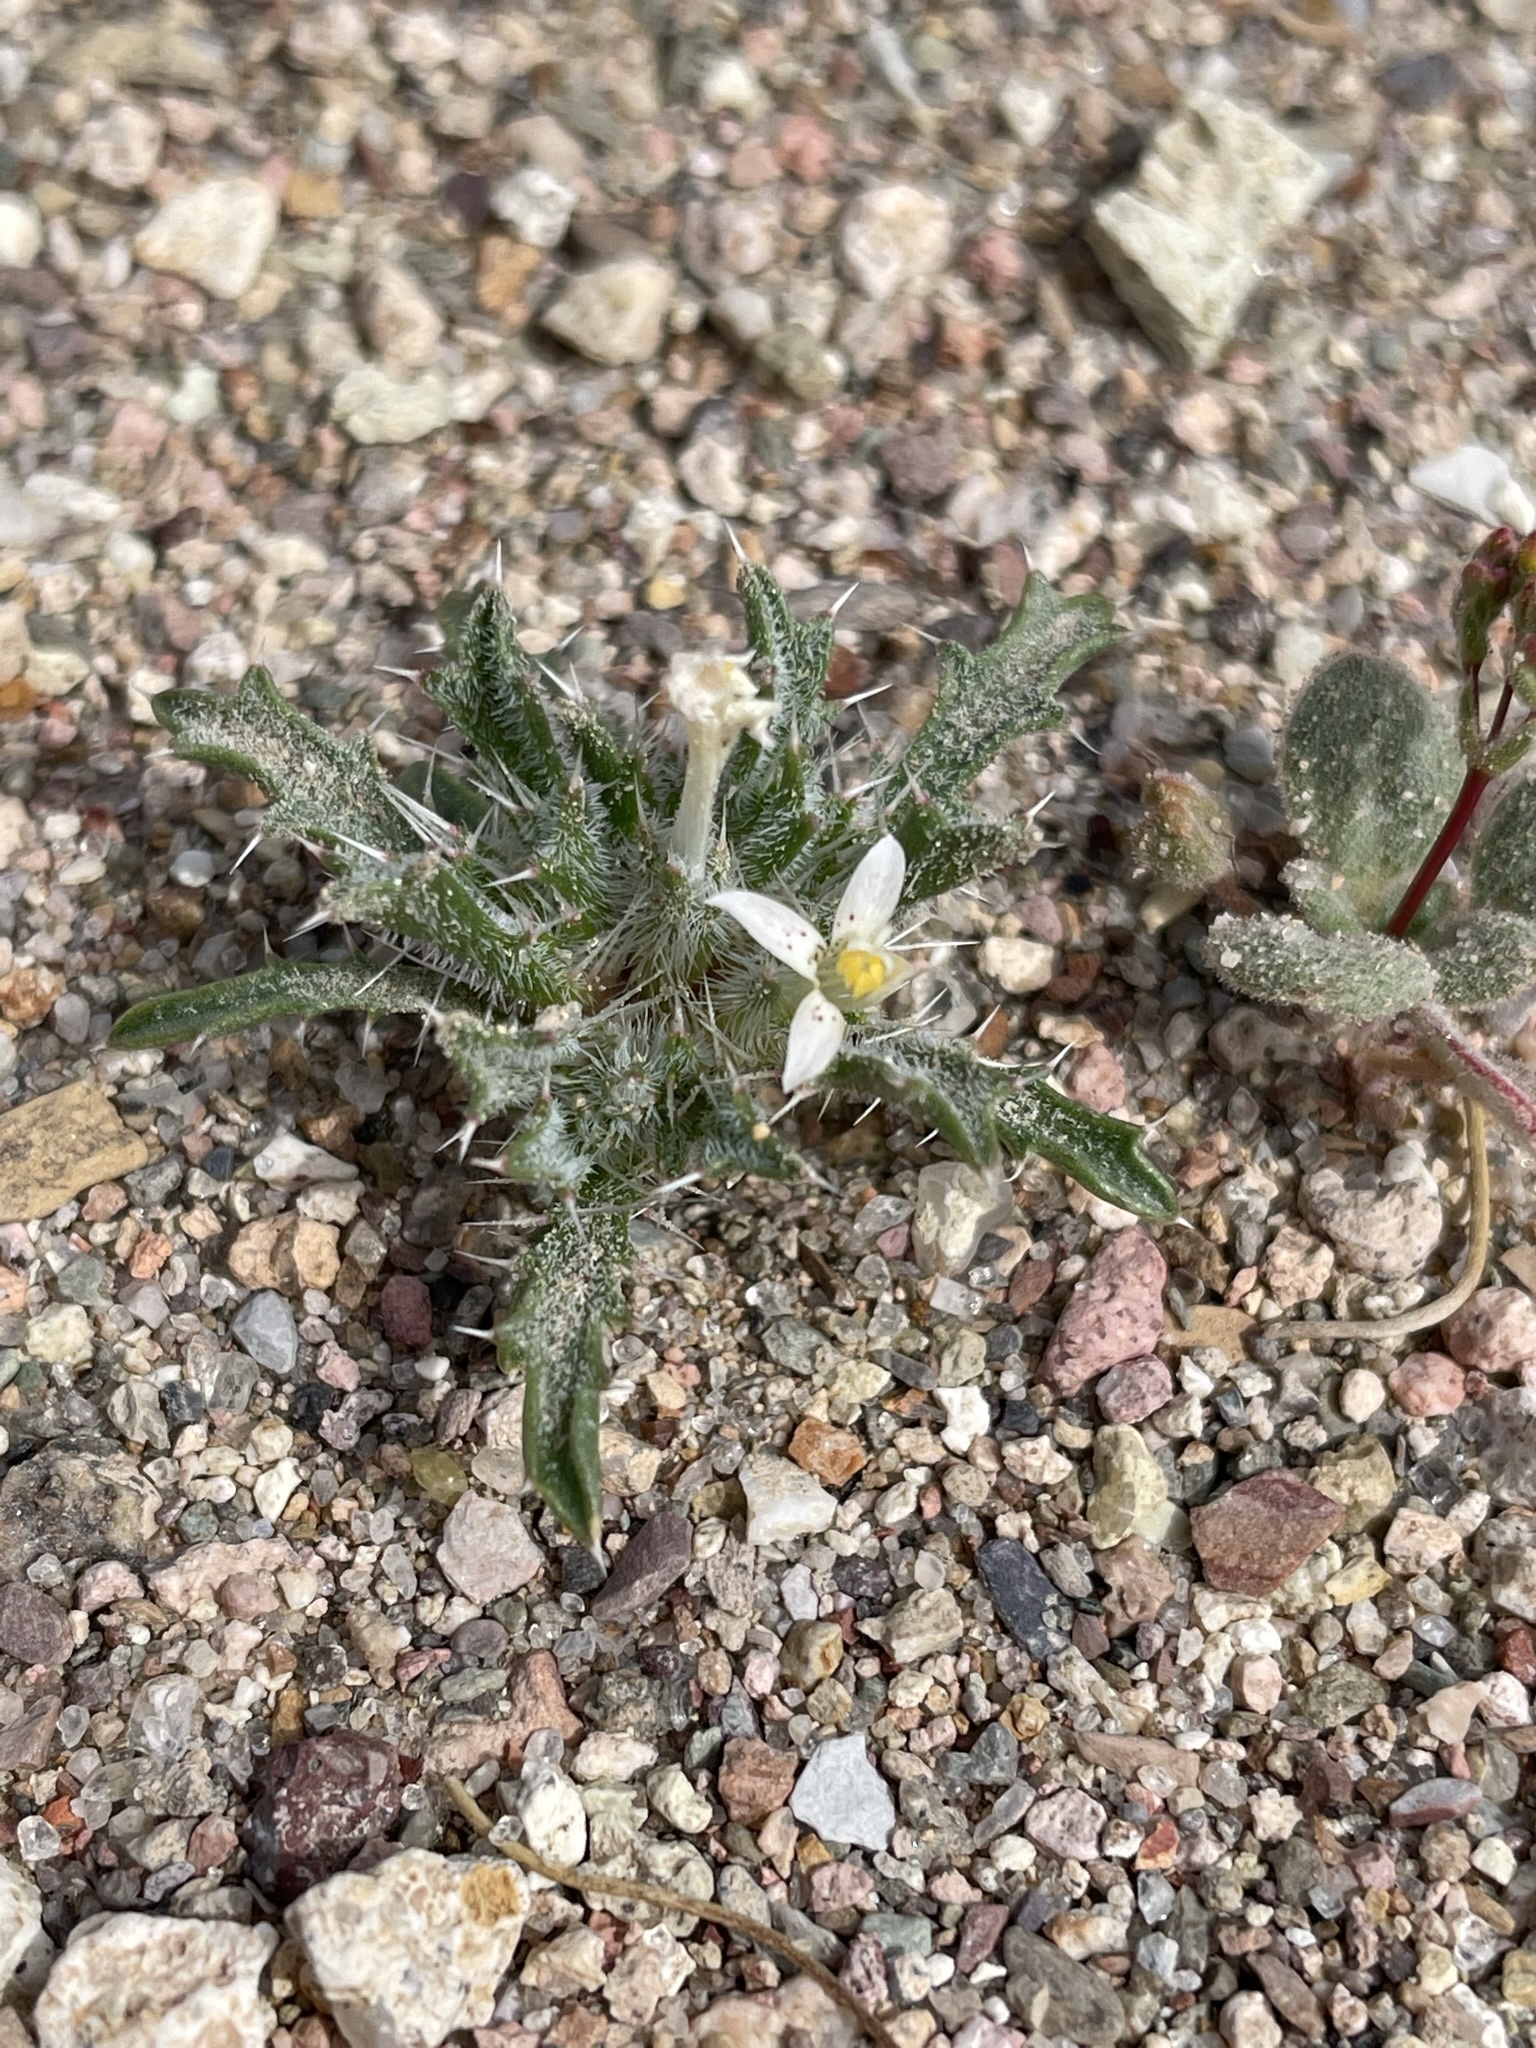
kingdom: Plantae
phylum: Tracheophyta
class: Magnoliopsida
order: Ericales
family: Polemoniaceae
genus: Loeseliastrum
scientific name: Loeseliastrum schottii
